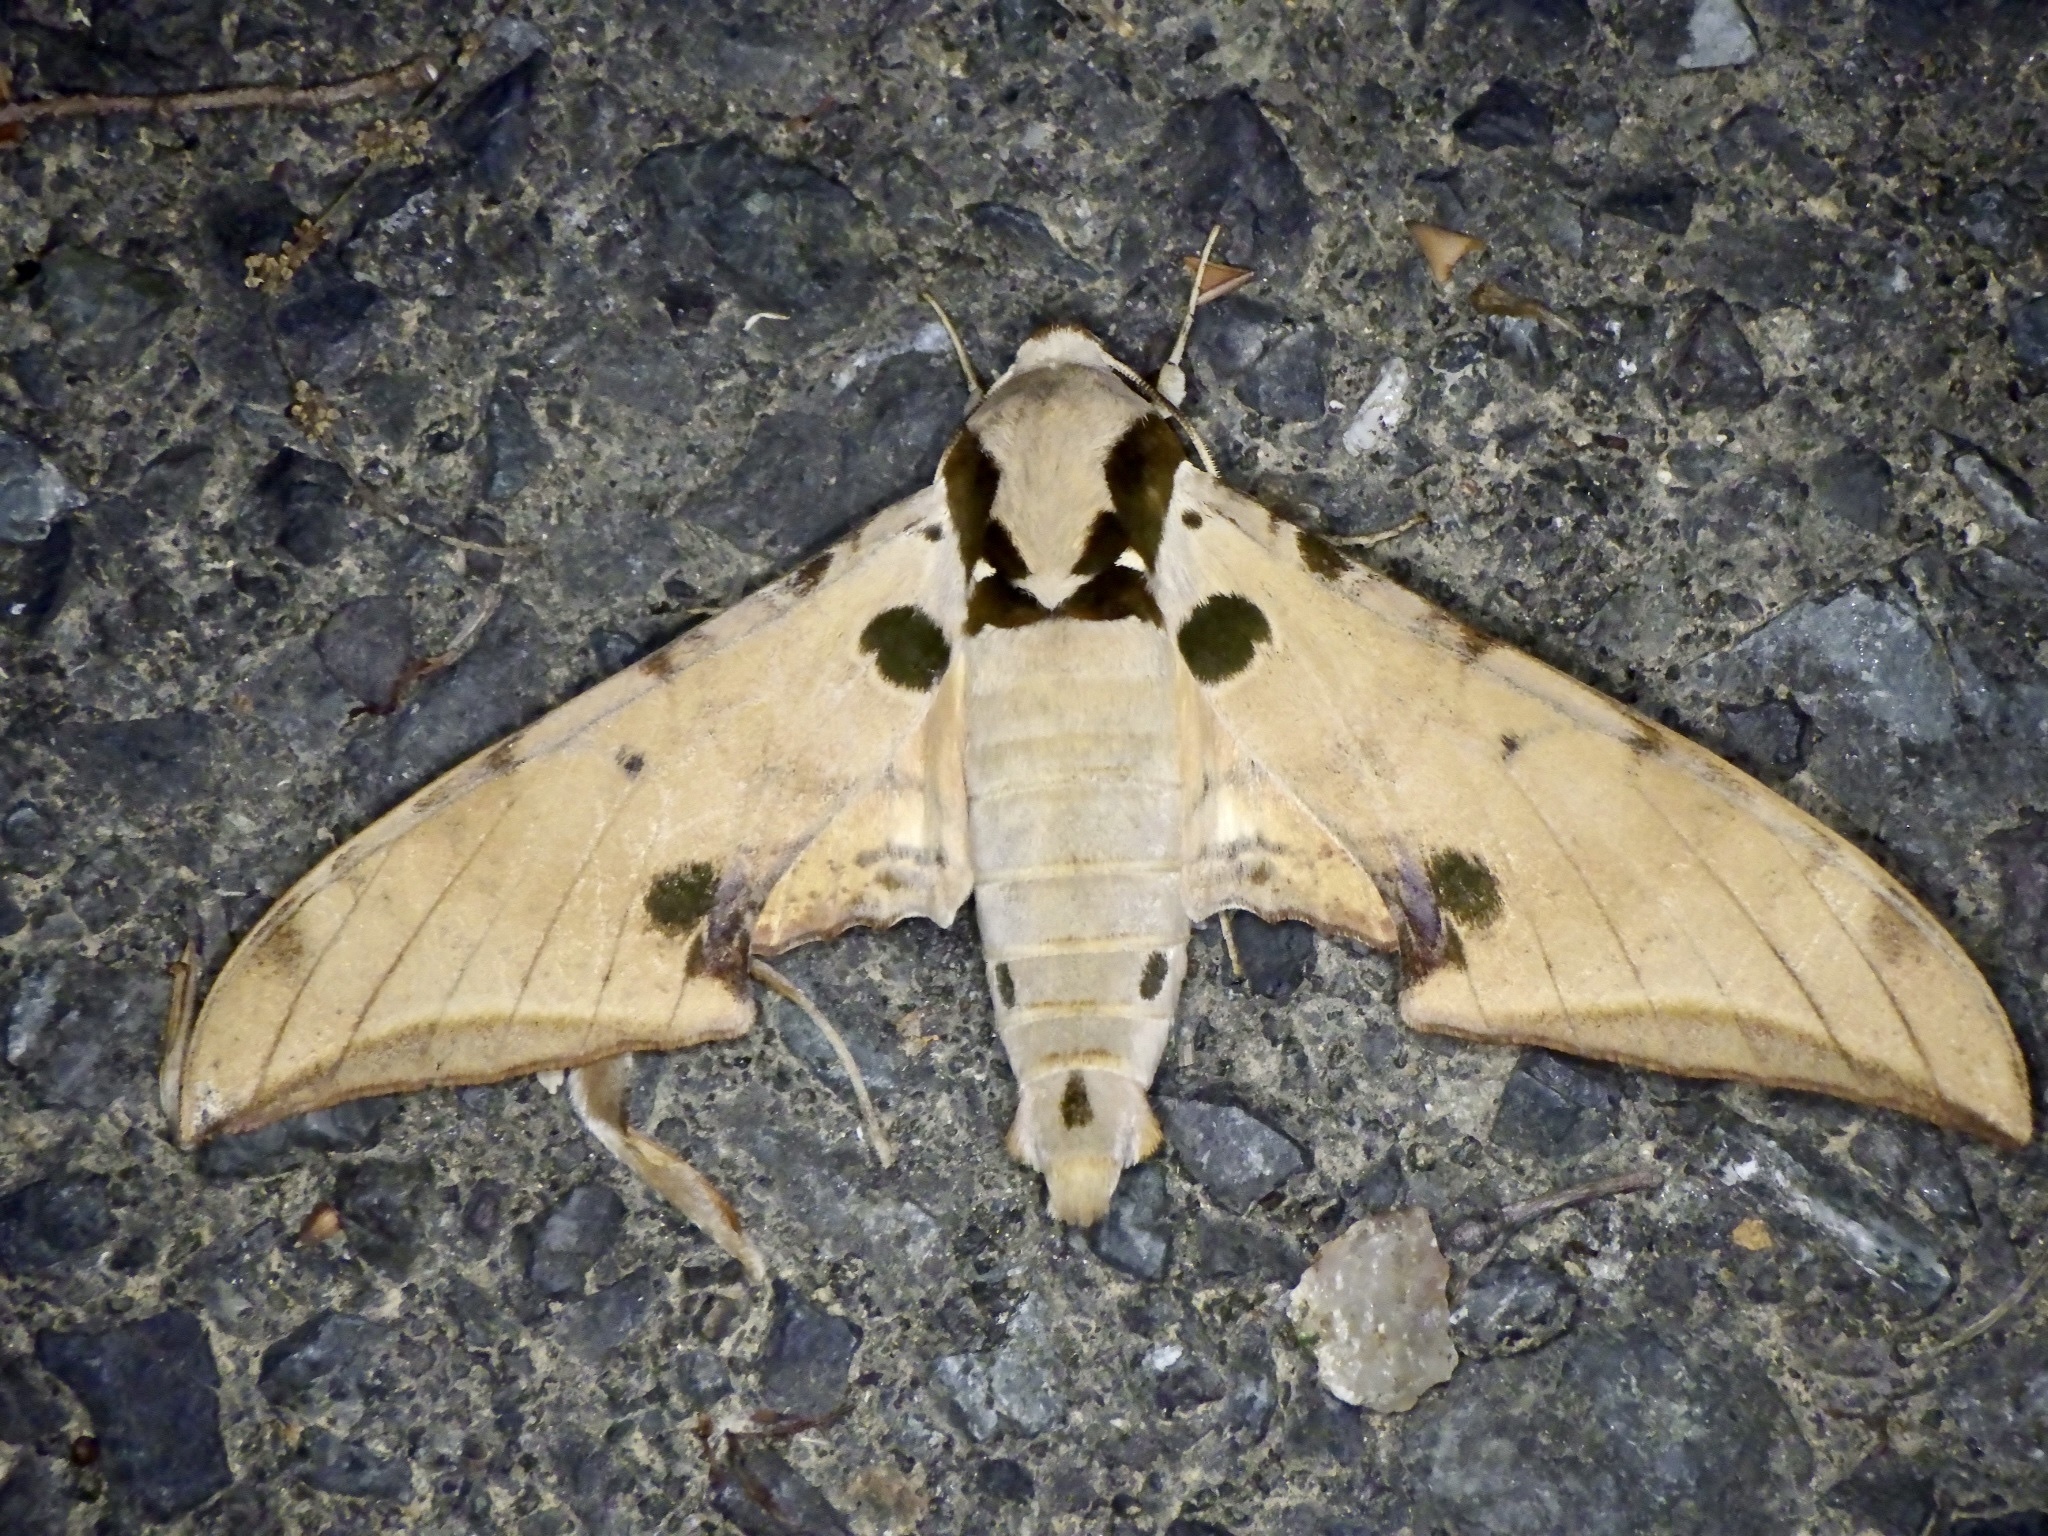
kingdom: Animalia
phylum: Arthropoda
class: Insecta
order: Lepidoptera
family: Sphingidae
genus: Ambulyx
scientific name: Ambulyx ochracea
